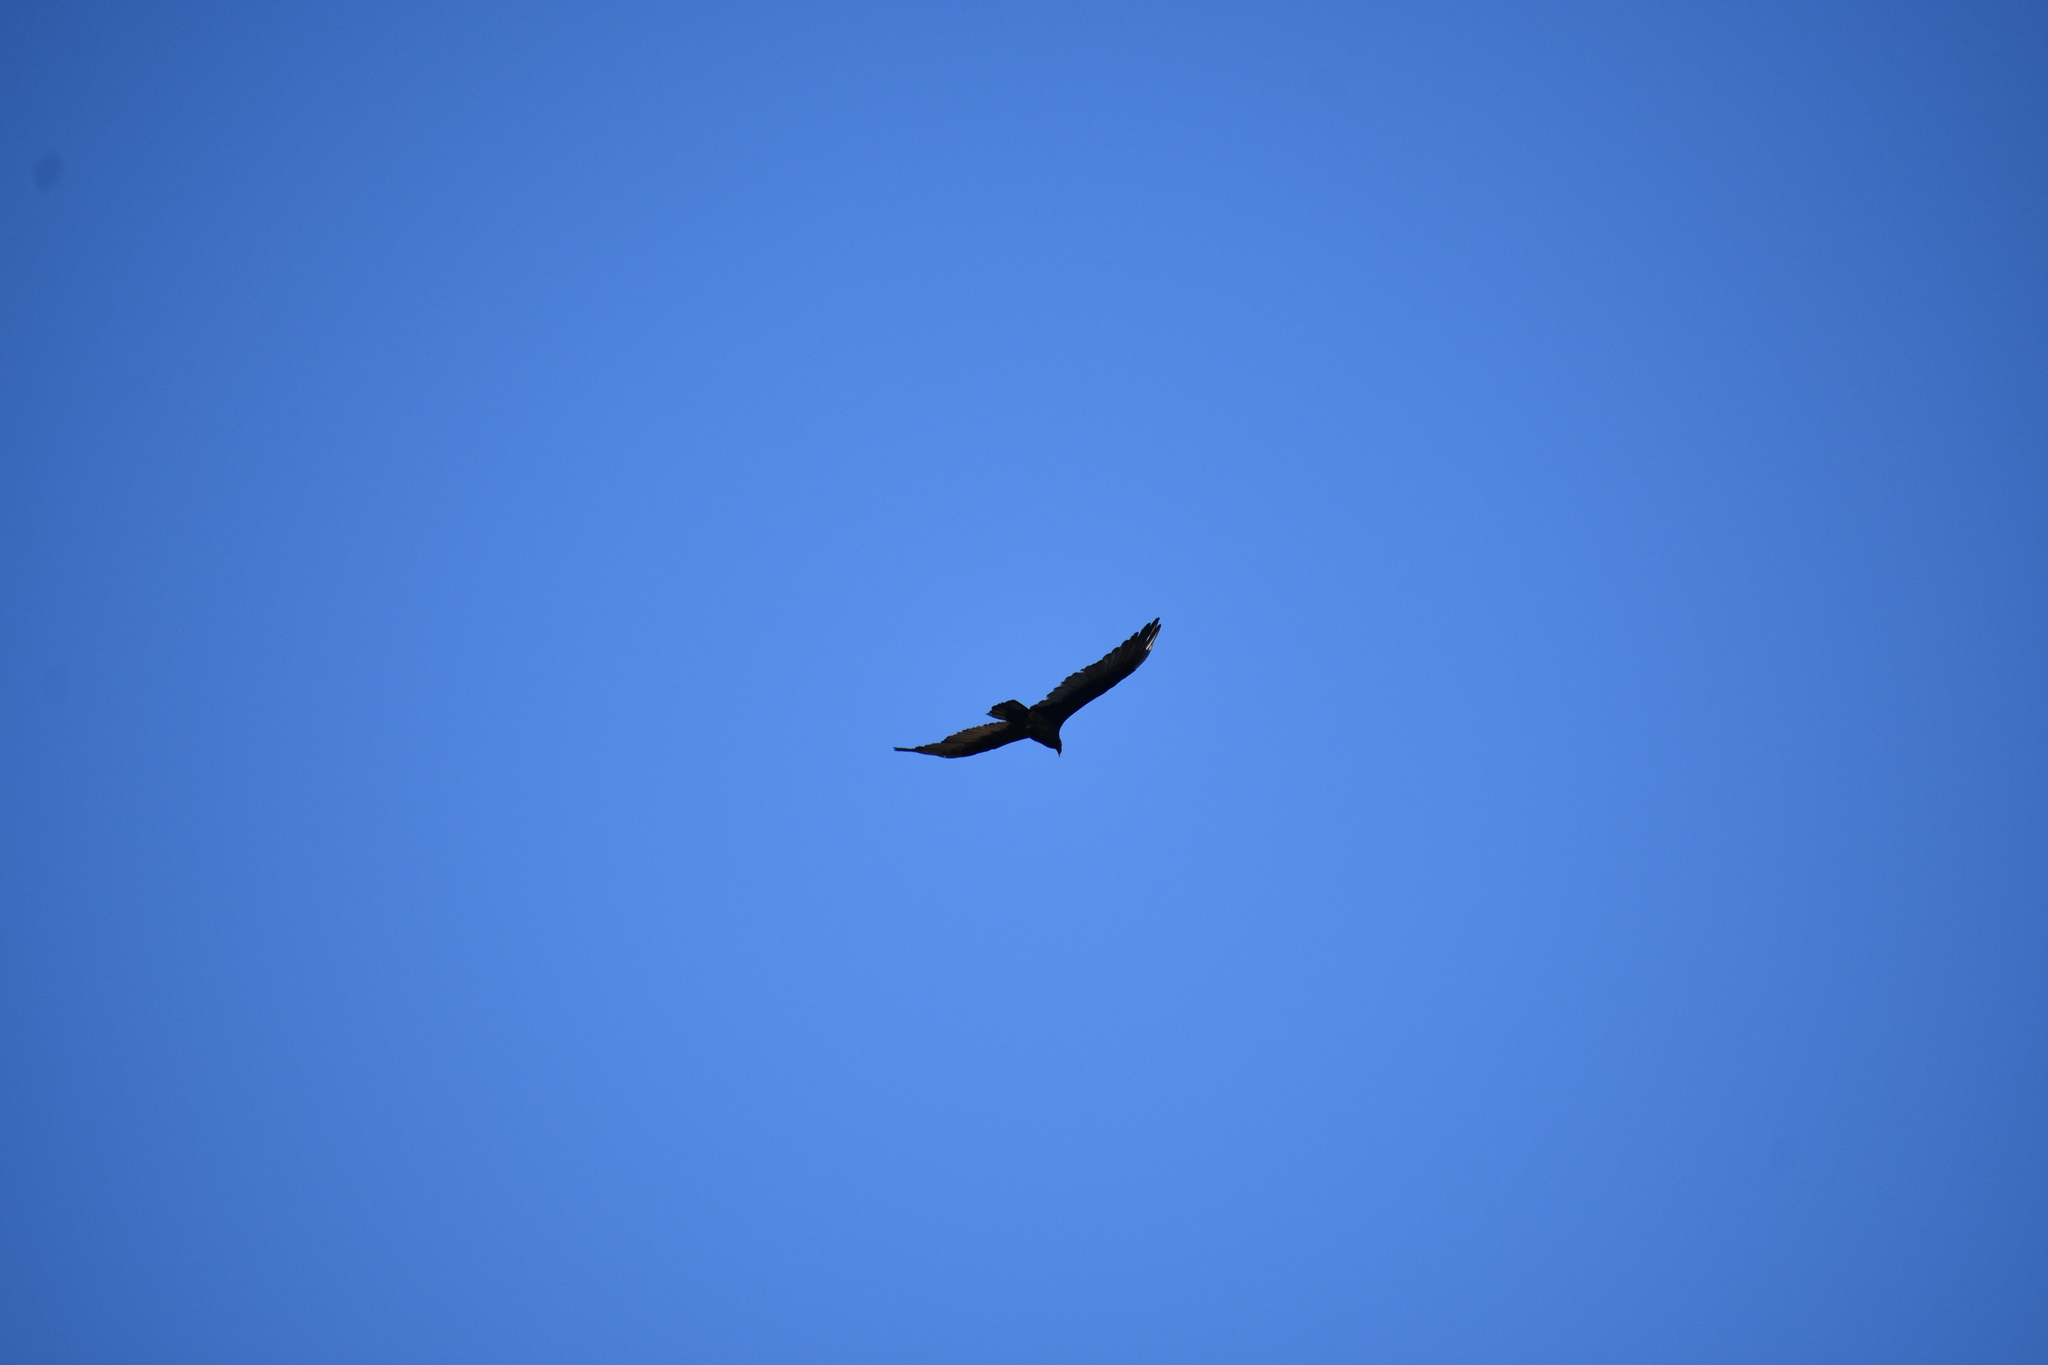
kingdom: Animalia
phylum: Chordata
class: Aves
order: Accipitriformes
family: Cathartidae
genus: Cathartes
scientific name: Cathartes aura
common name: Turkey vulture
